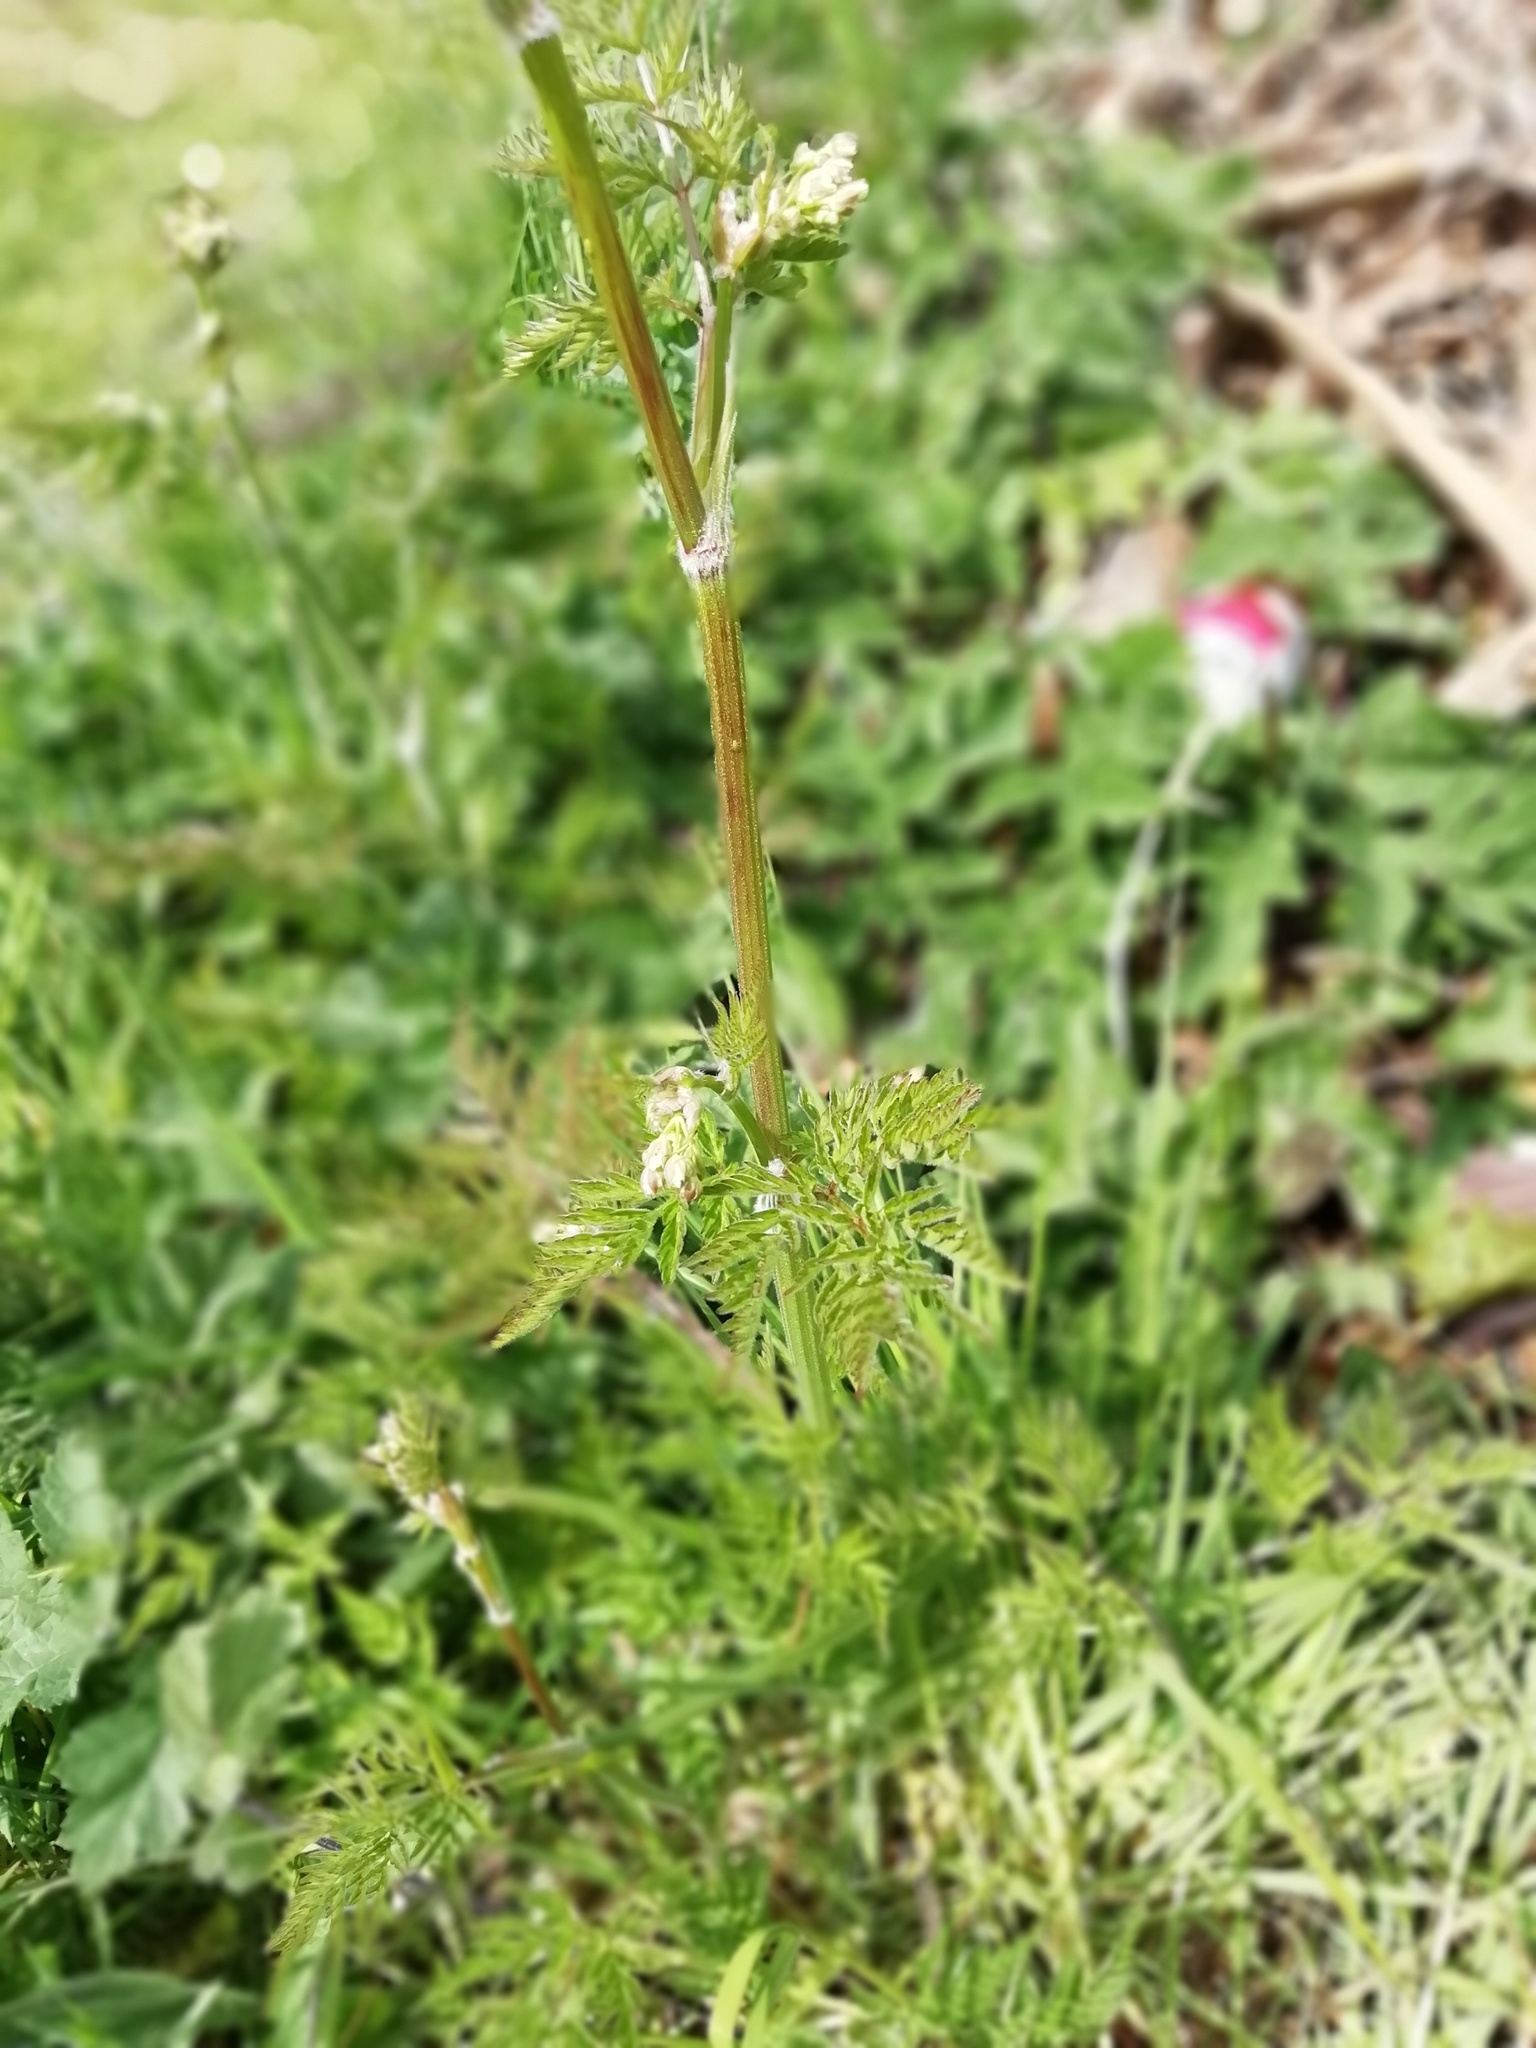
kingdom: Plantae
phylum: Tracheophyta
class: Magnoliopsida
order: Apiales
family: Apiaceae
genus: Anthriscus
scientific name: Anthriscus sylvestris
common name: Cow parsley
